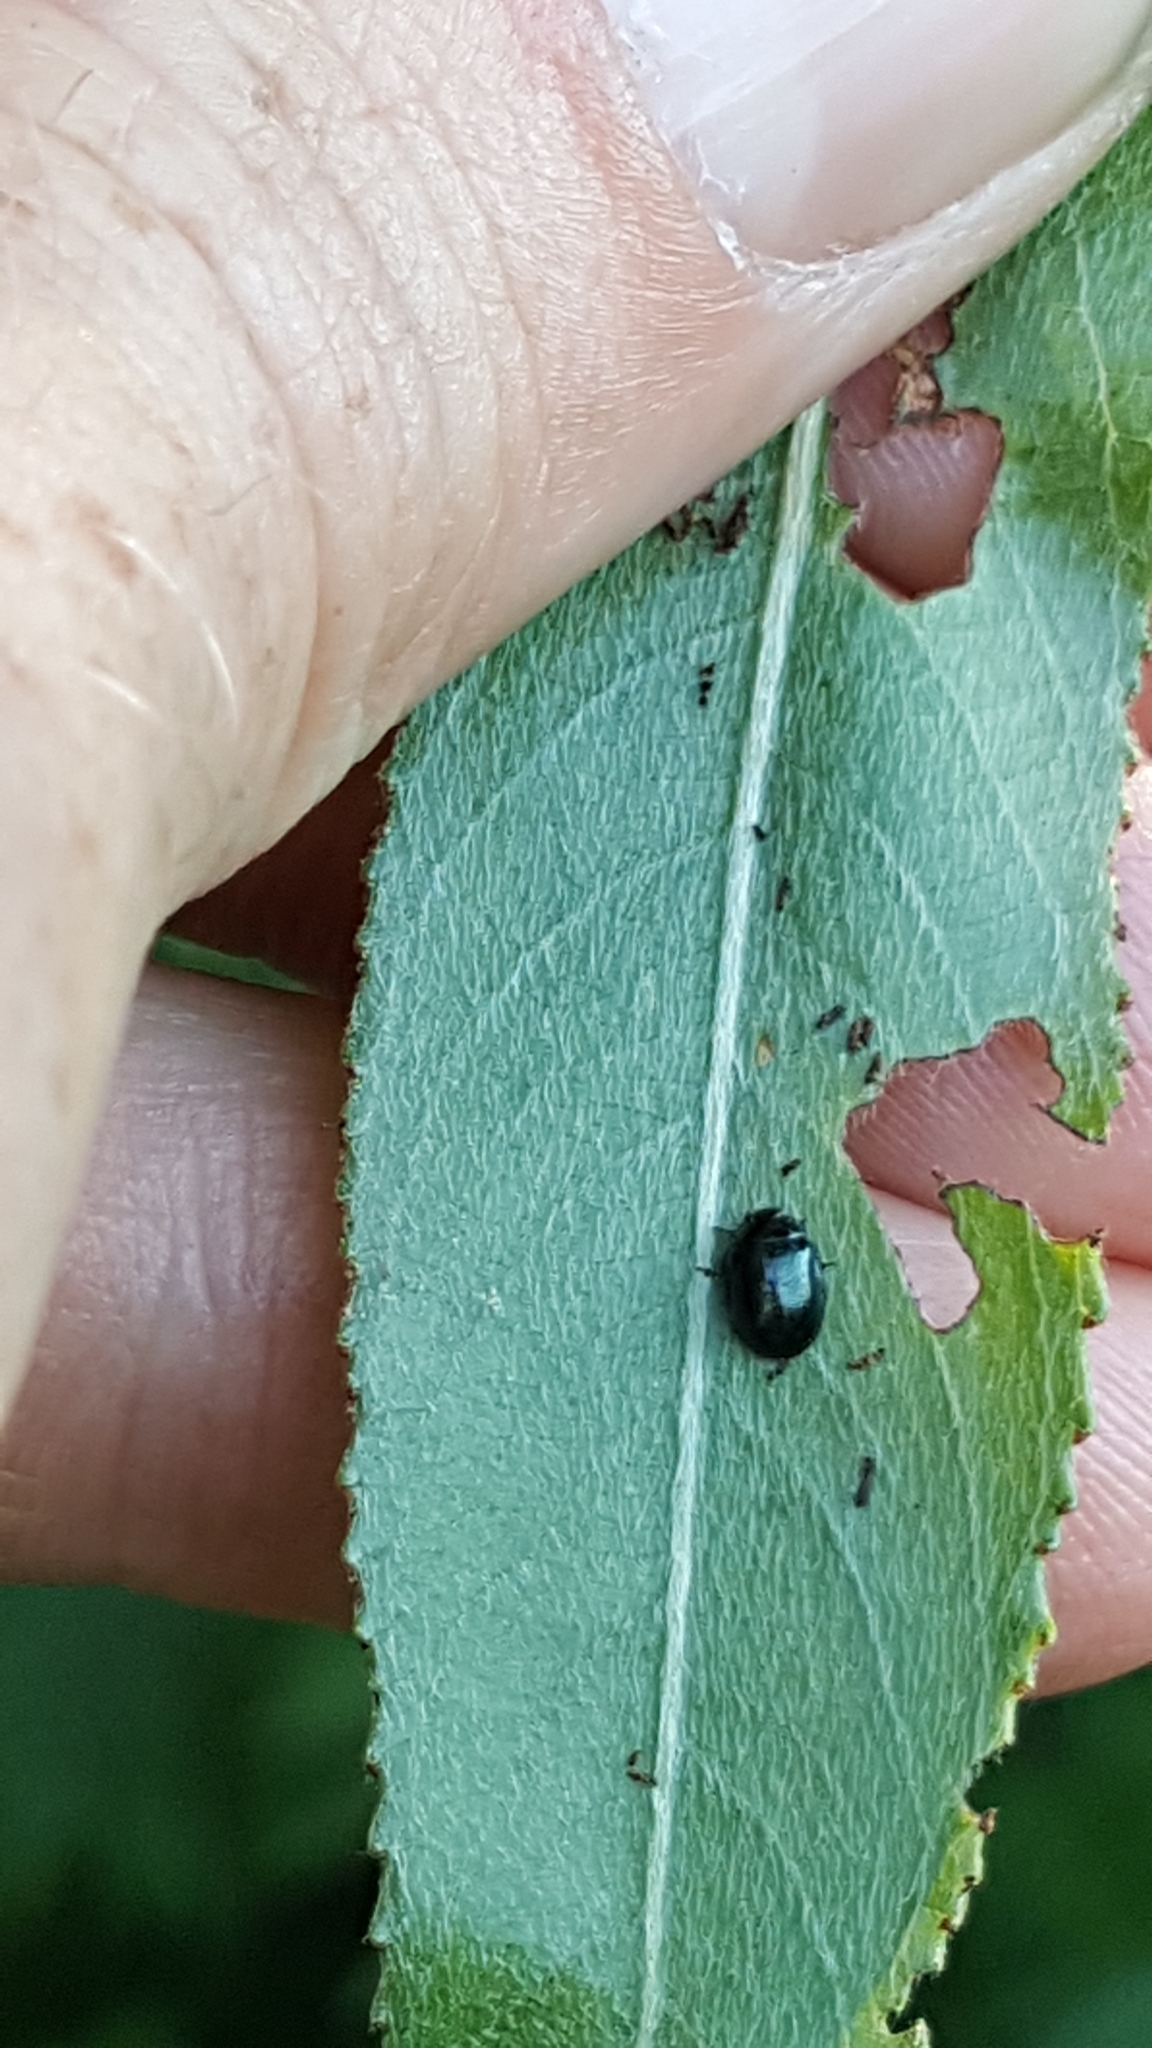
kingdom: Animalia
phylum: Arthropoda
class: Insecta
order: Coleoptera
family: Chrysomelidae
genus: Plagiodera
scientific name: Plagiodera versicolora
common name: Imported willow leaf beetle
